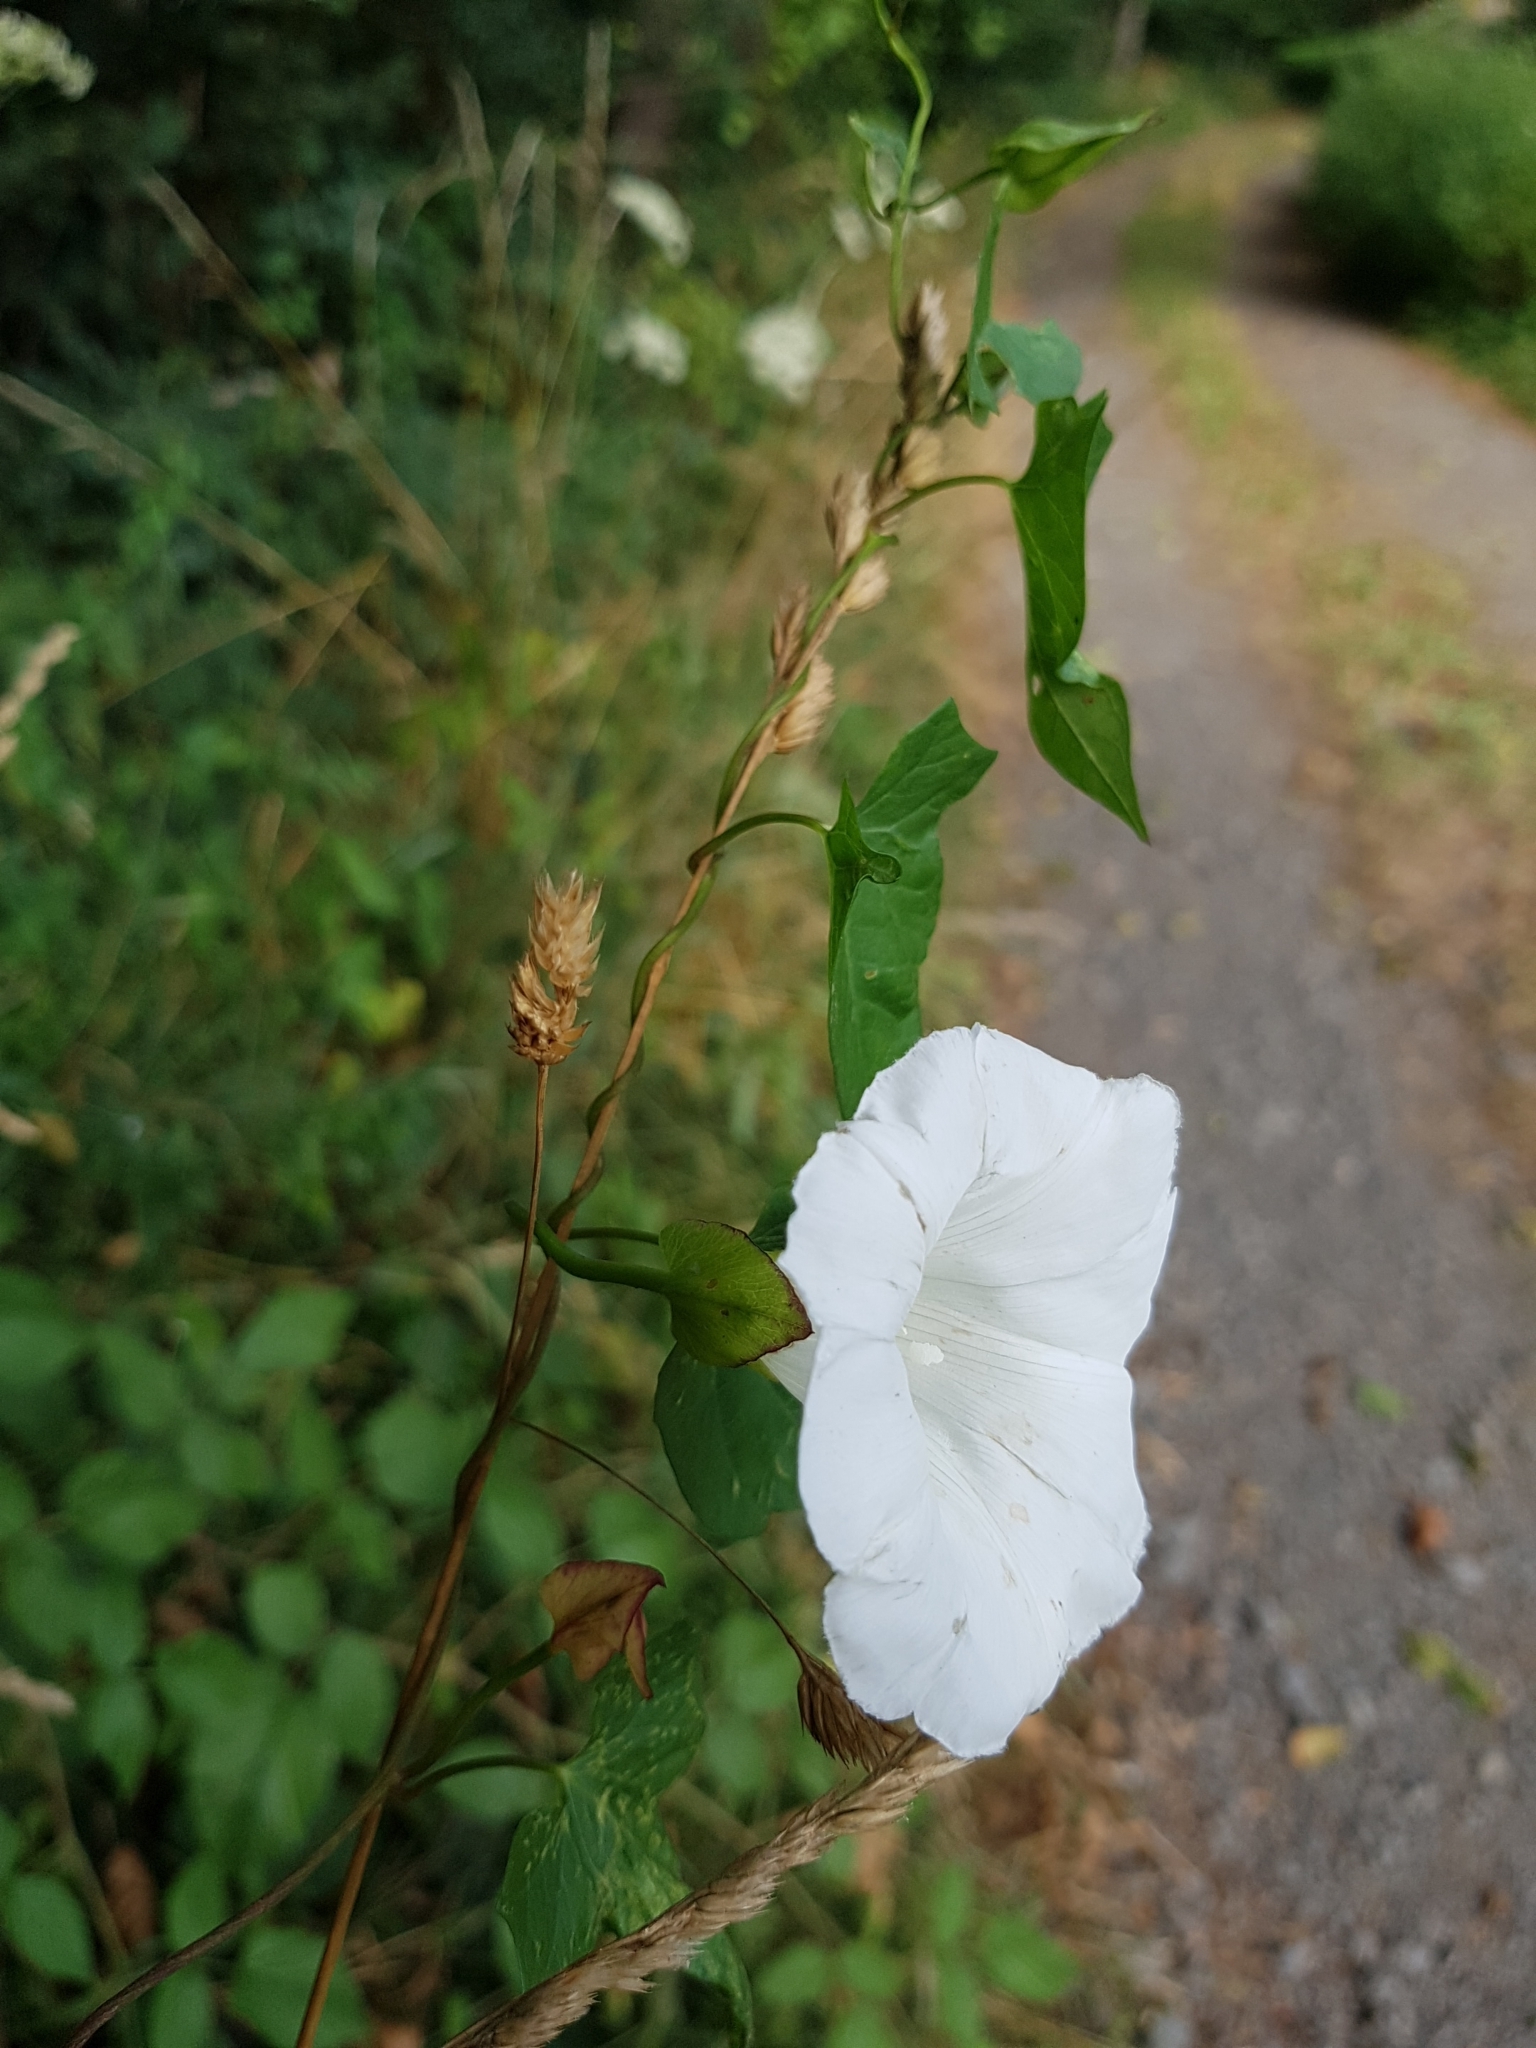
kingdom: Plantae
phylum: Tracheophyta
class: Magnoliopsida
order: Solanales
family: Convolvulaceae
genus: Calystegia
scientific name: Calystegia sepium
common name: Hedge bindweed
